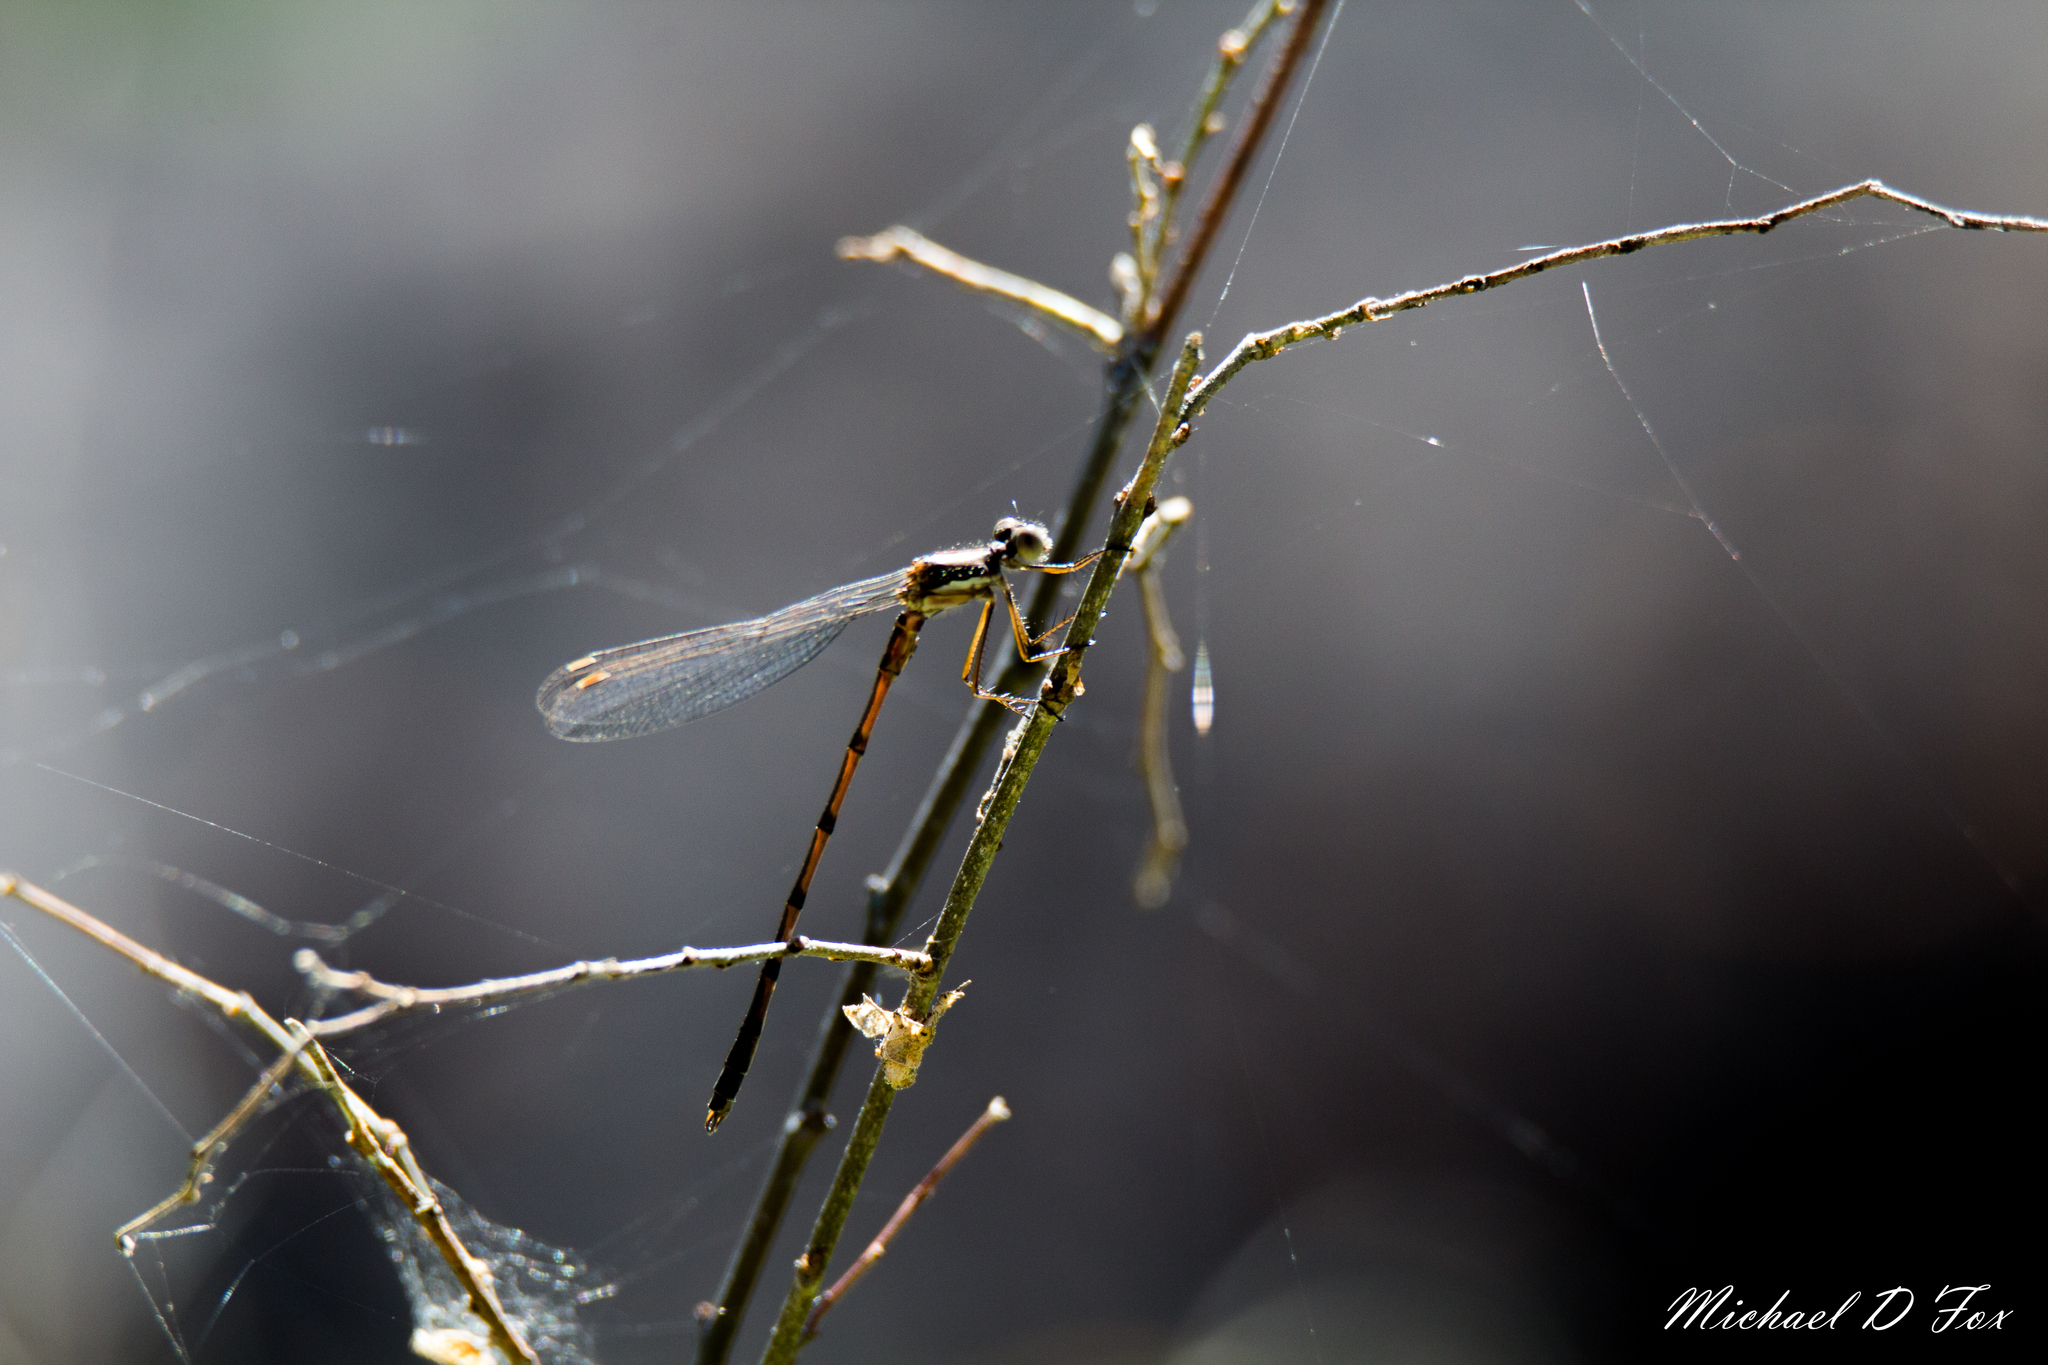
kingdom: Animalia
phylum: Arthropoda
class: Insecta
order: Odonata
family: Lestidae
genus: Lestes
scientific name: Lestes australis
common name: Southern spreadwing
